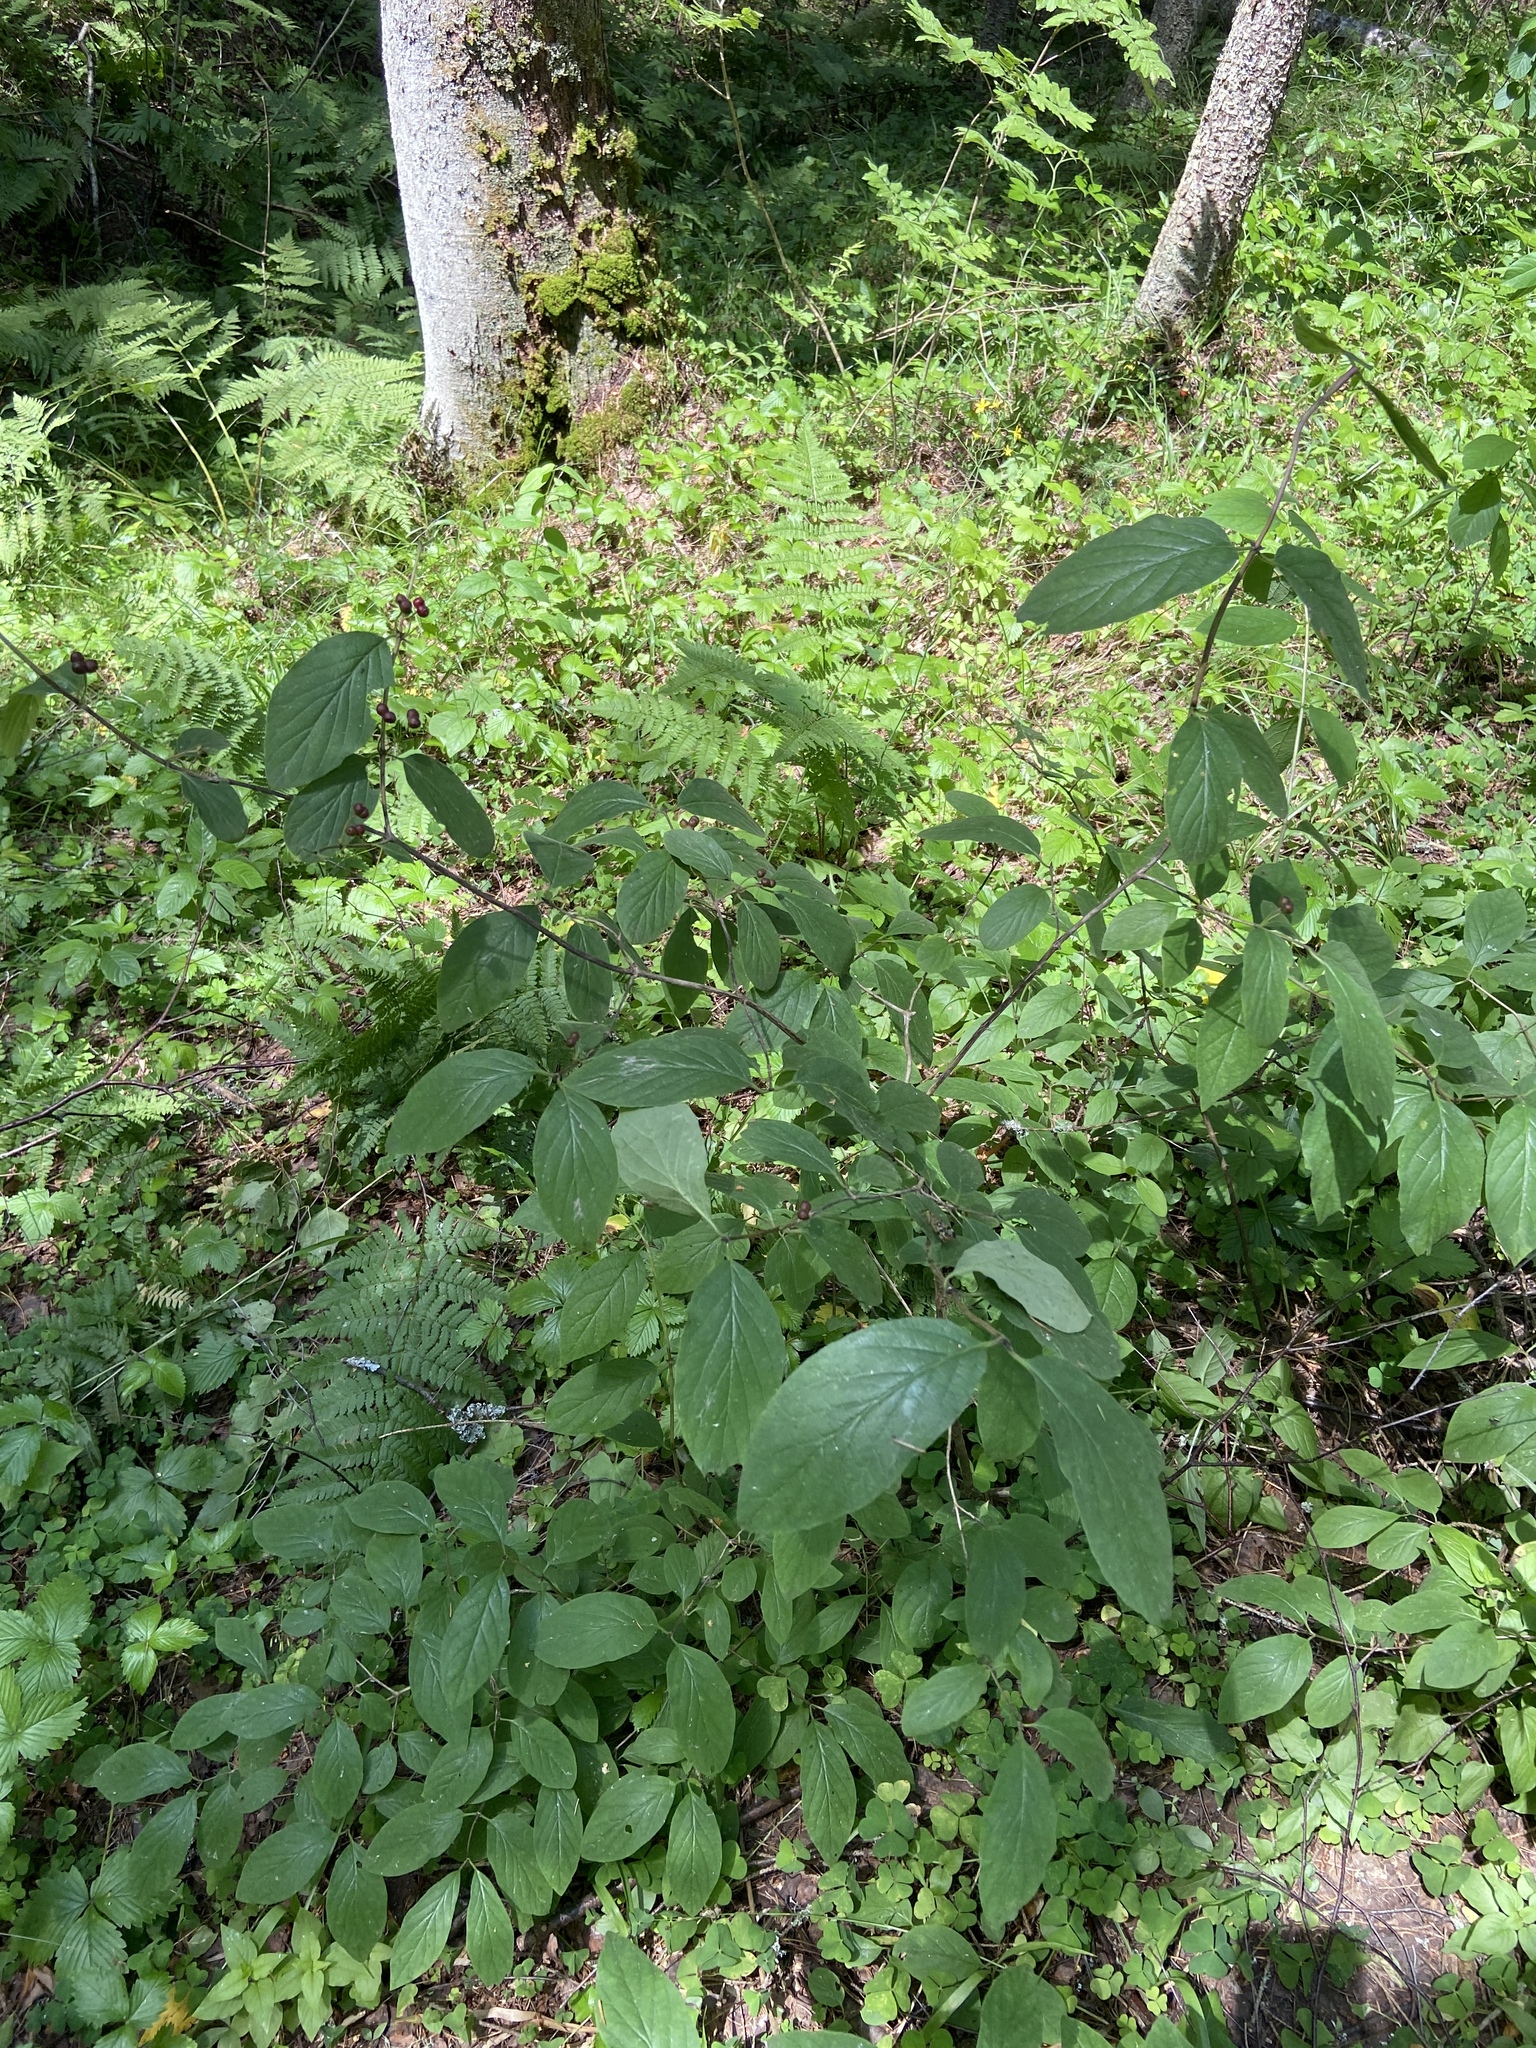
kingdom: Plantae
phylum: Tracheophyta
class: Magnoliopsida
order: Dipsacales
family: Caprifoliaceae
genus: Lonicera
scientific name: Lonicera xylosteum
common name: Fly honeysuckle
